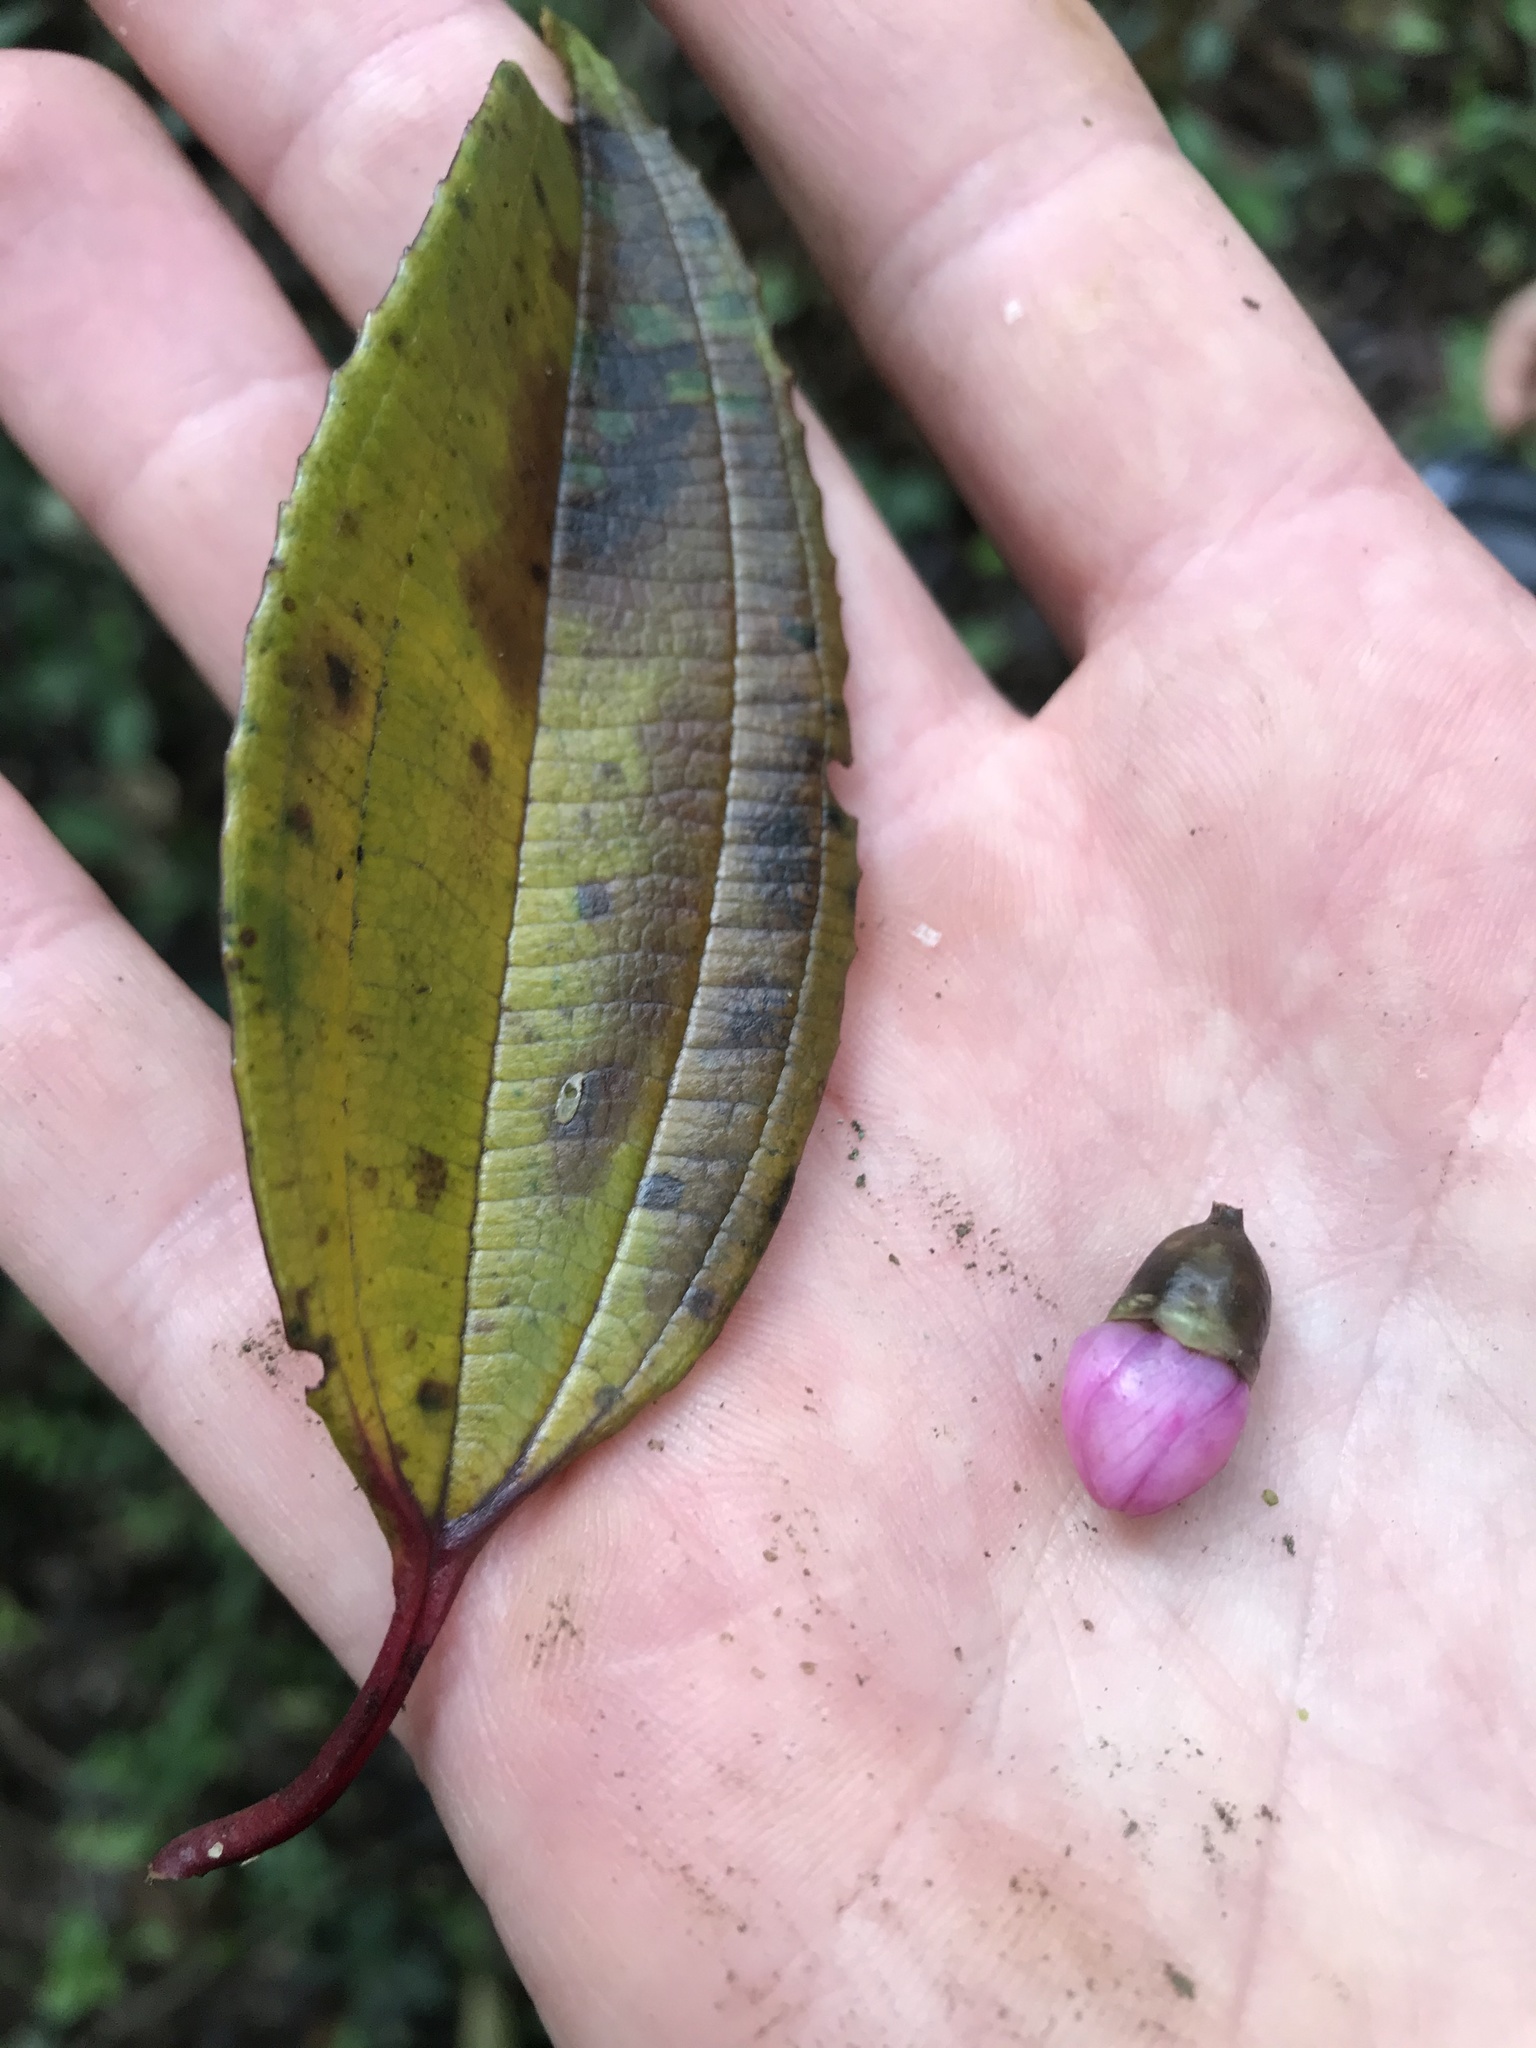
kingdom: Plantae
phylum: Tracheophyta
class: Magnoliopsida
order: Myrtales
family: Melastomataceae
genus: Axinaea
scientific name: Axinaea macrophylla
